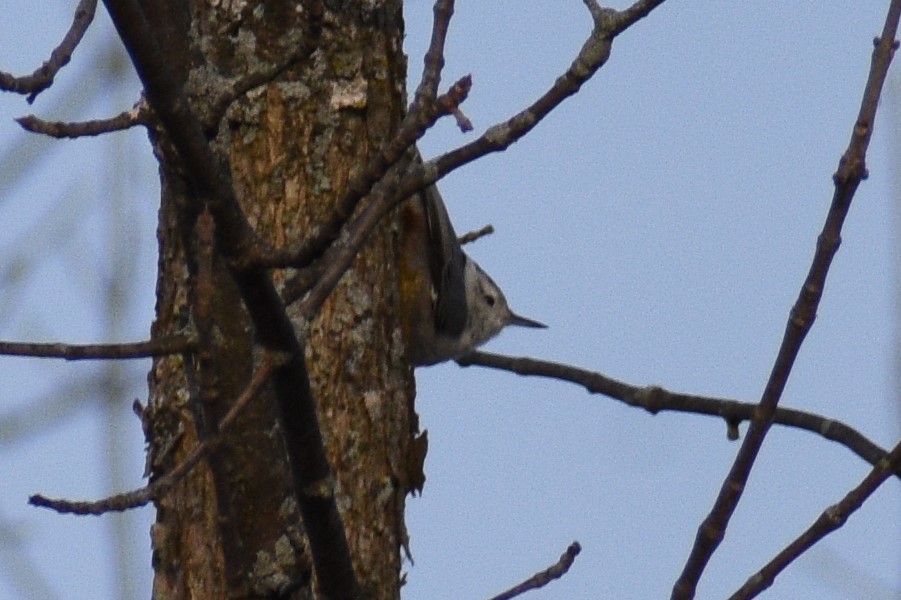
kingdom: Animalia
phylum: Chordata
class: Aves
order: Passeriformes
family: Sittidae
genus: Sitta
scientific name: Sitta carolinensis
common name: White-breasted nuthatch
